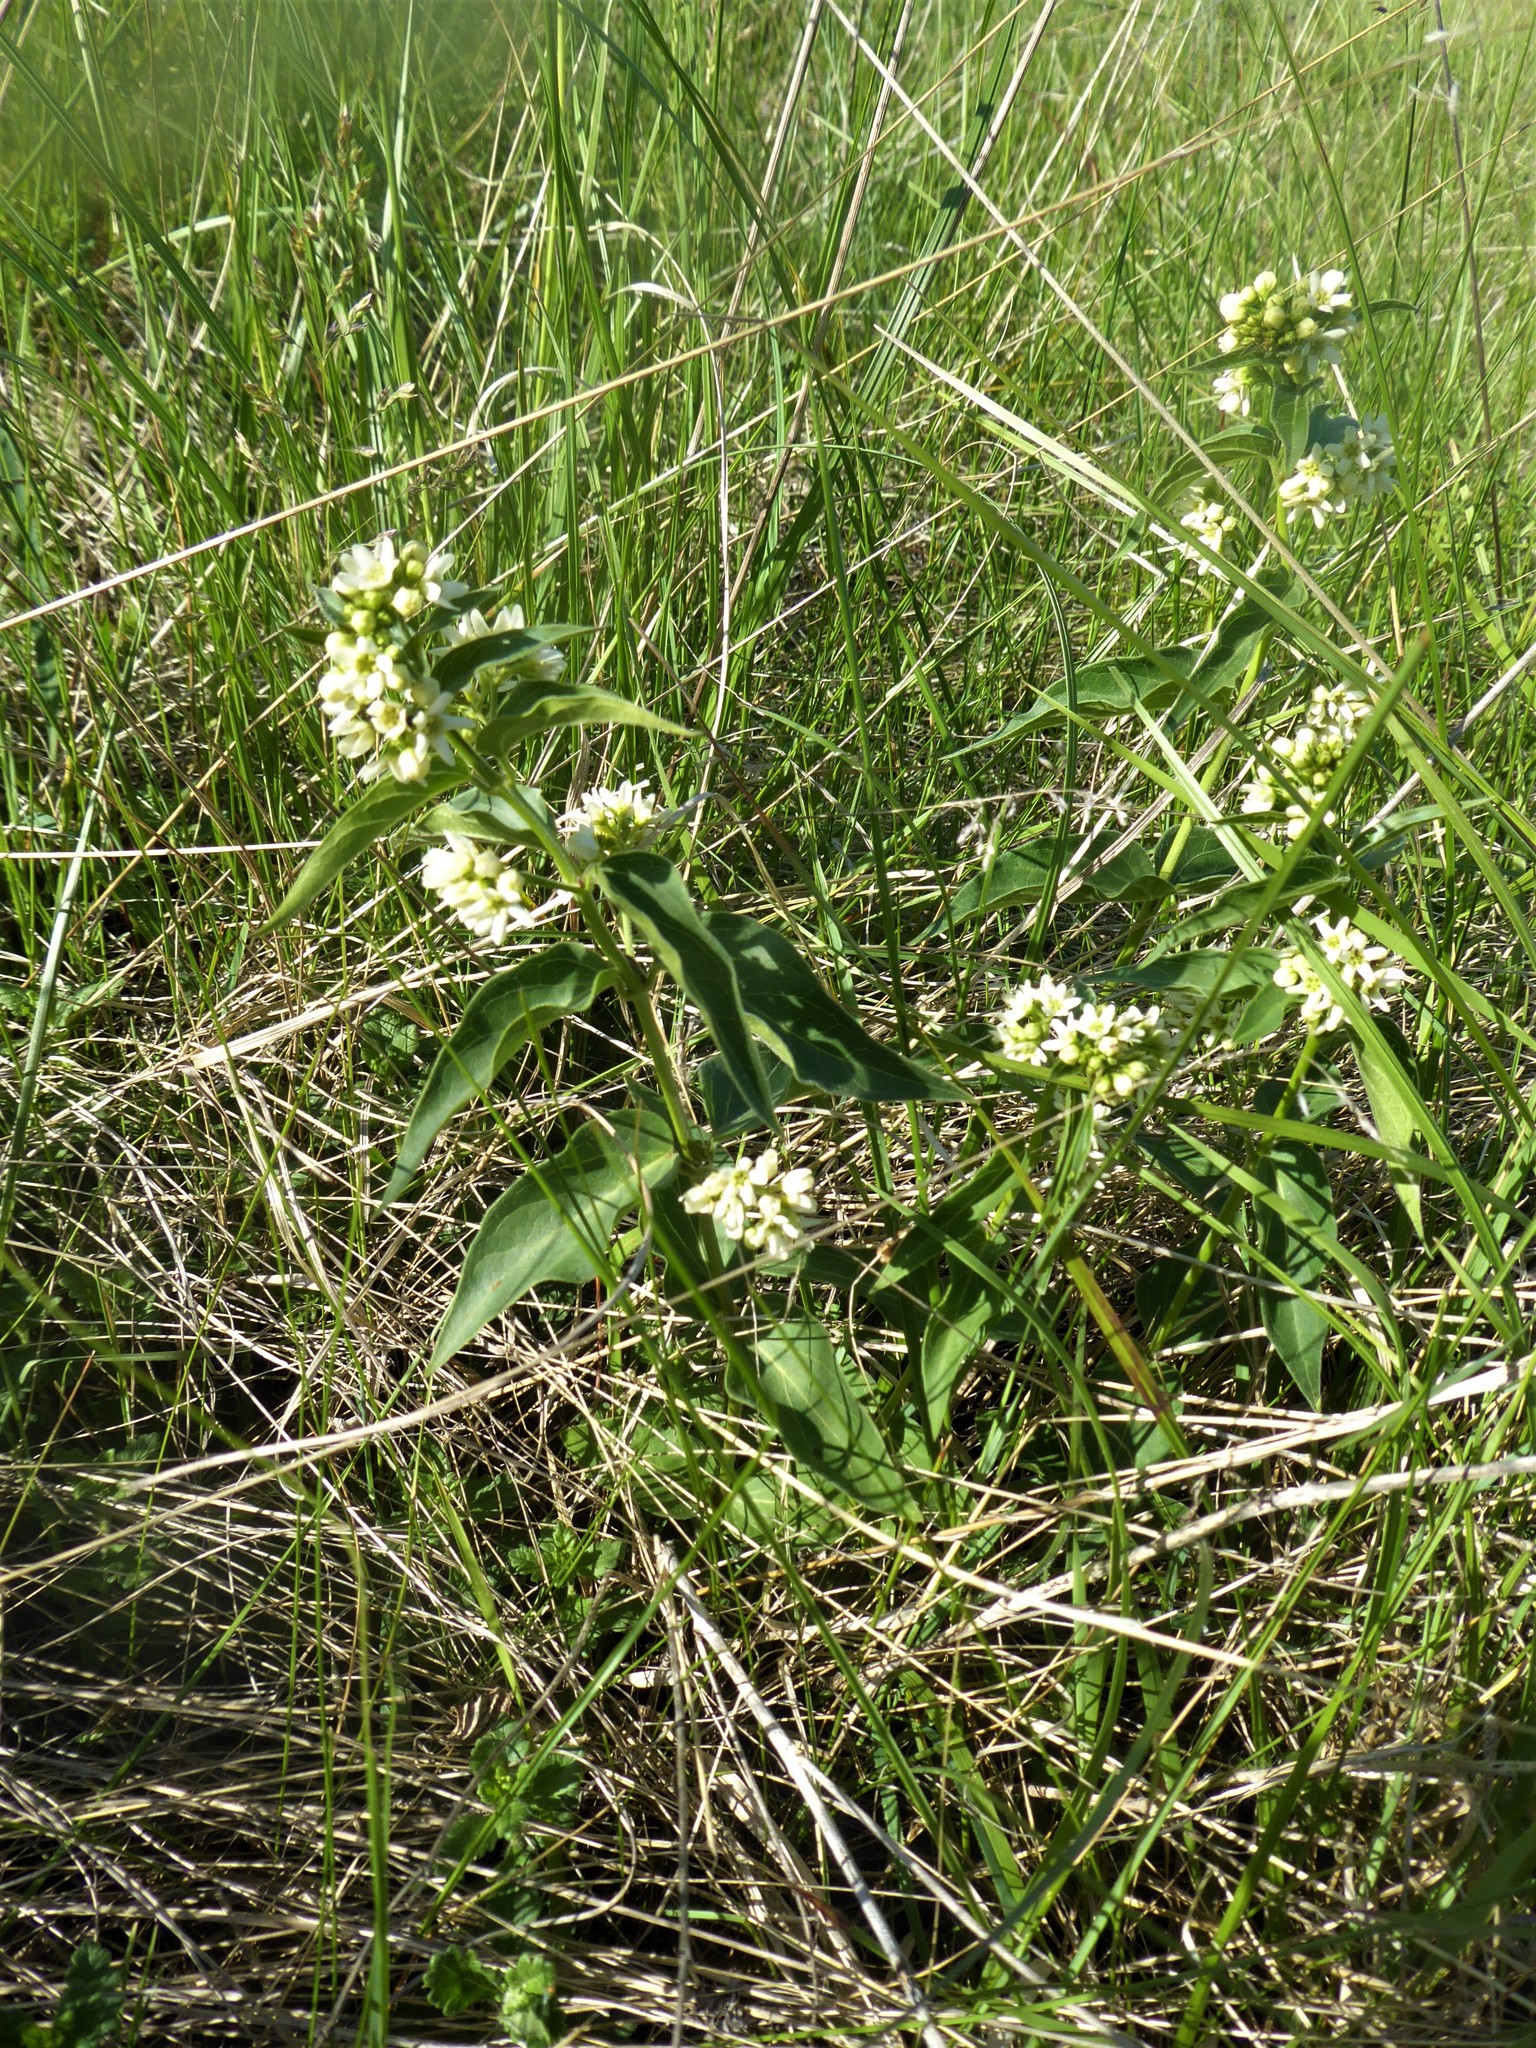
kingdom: Plantae
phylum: Tracheophyta
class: Magnoliopsida
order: Gentianales
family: Apocynaceae
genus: Vincetoxicum
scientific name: Vincetoxicum hirundinaria
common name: White swallowwort
